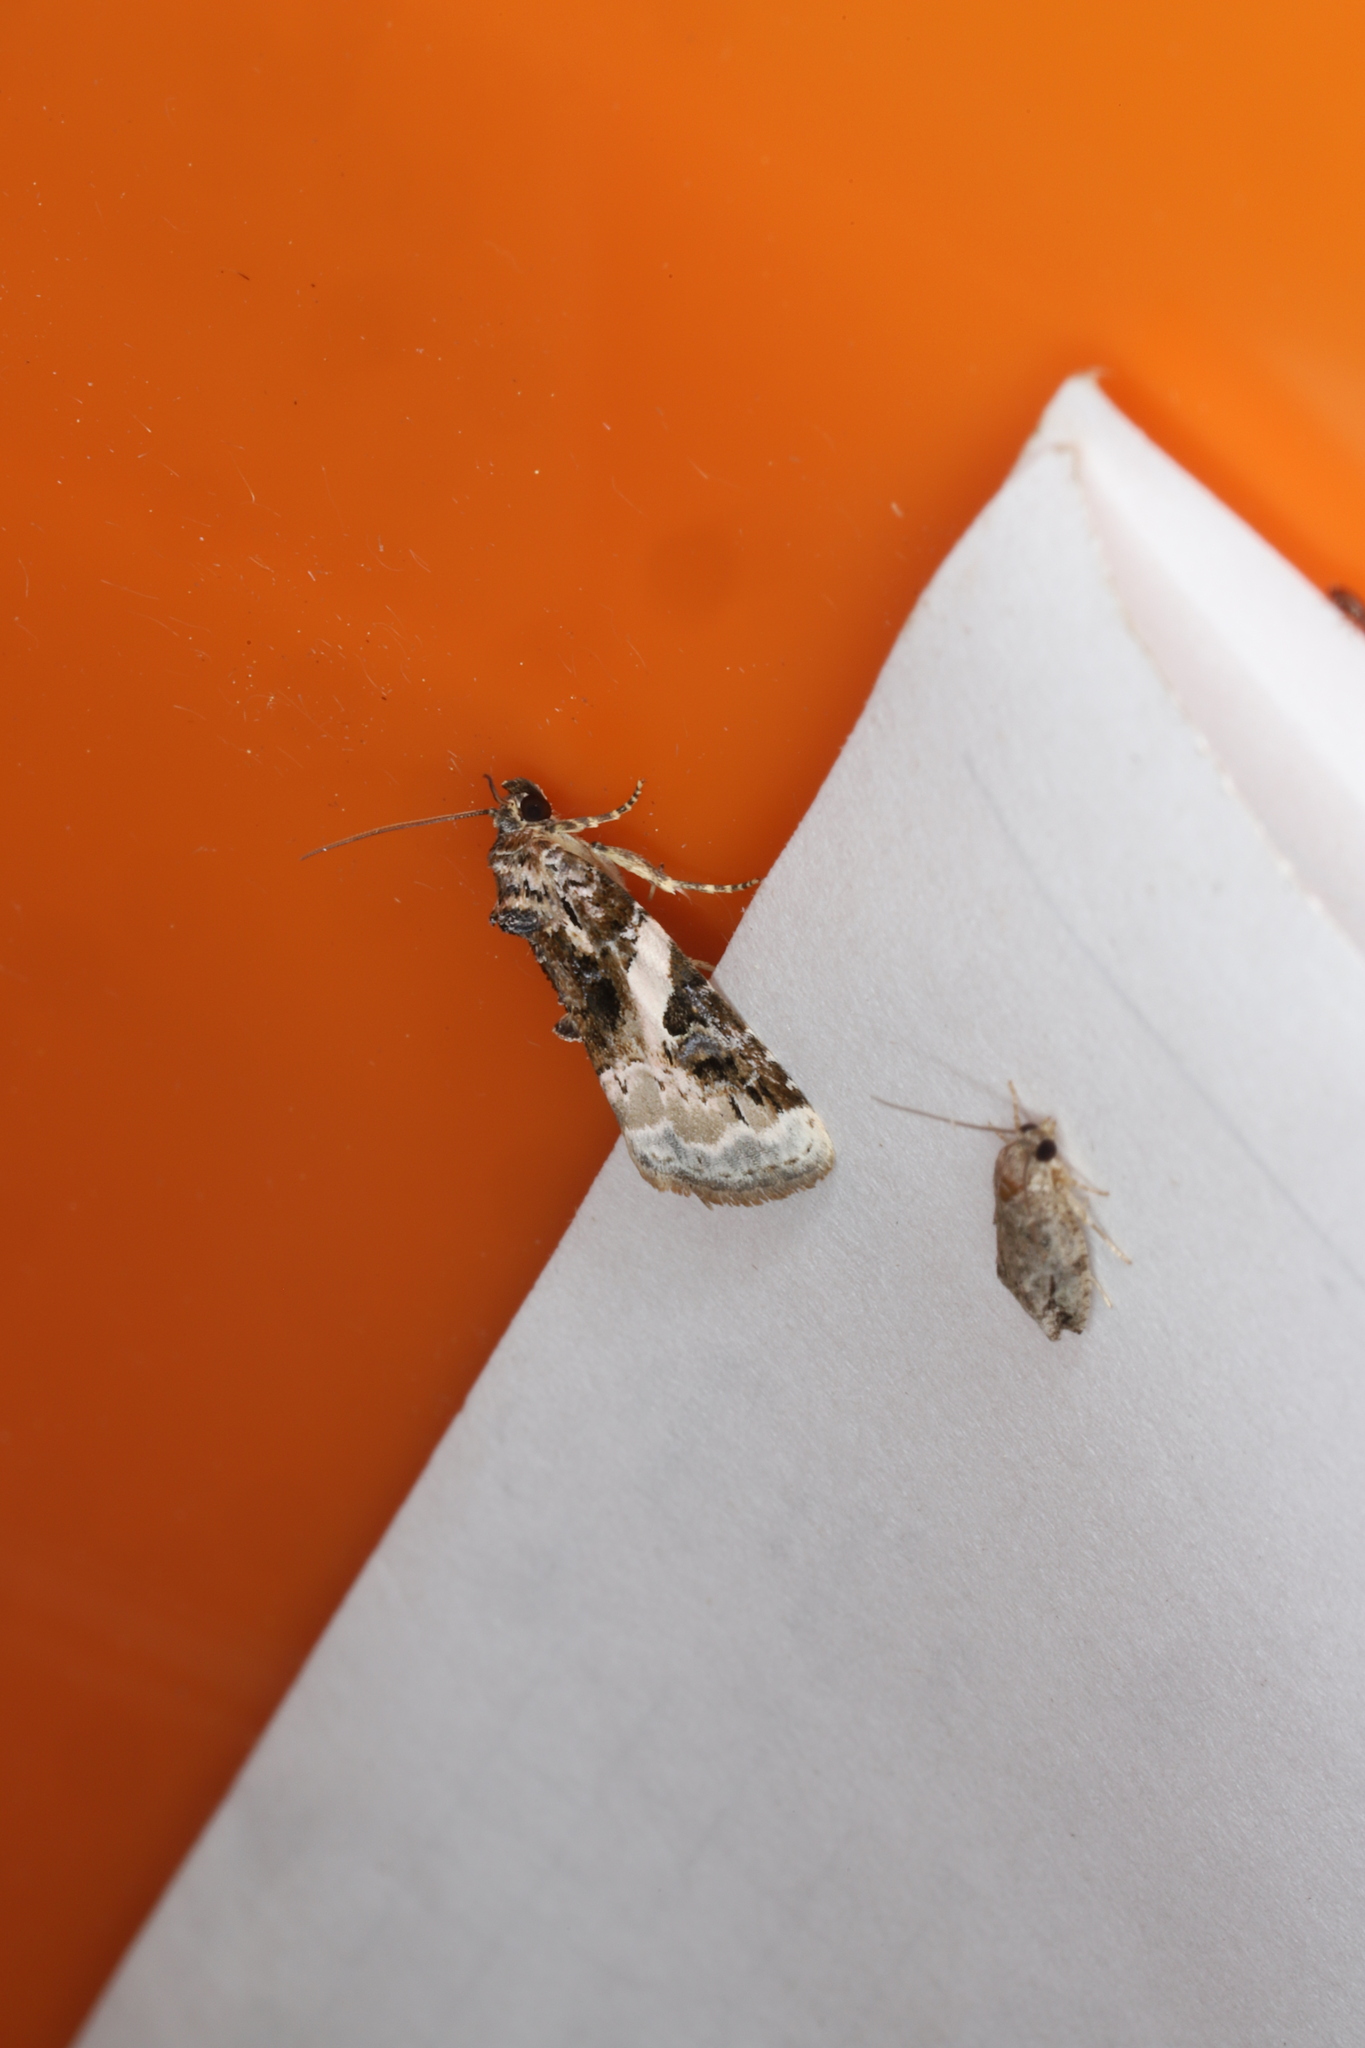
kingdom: Animalia
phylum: Arthropoda
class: Insecta
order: Lepidoptera
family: Noctuidae
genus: Pseudeustrotia
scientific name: Pseudeustrotia carneola
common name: Pink-barred lithacodia moth
